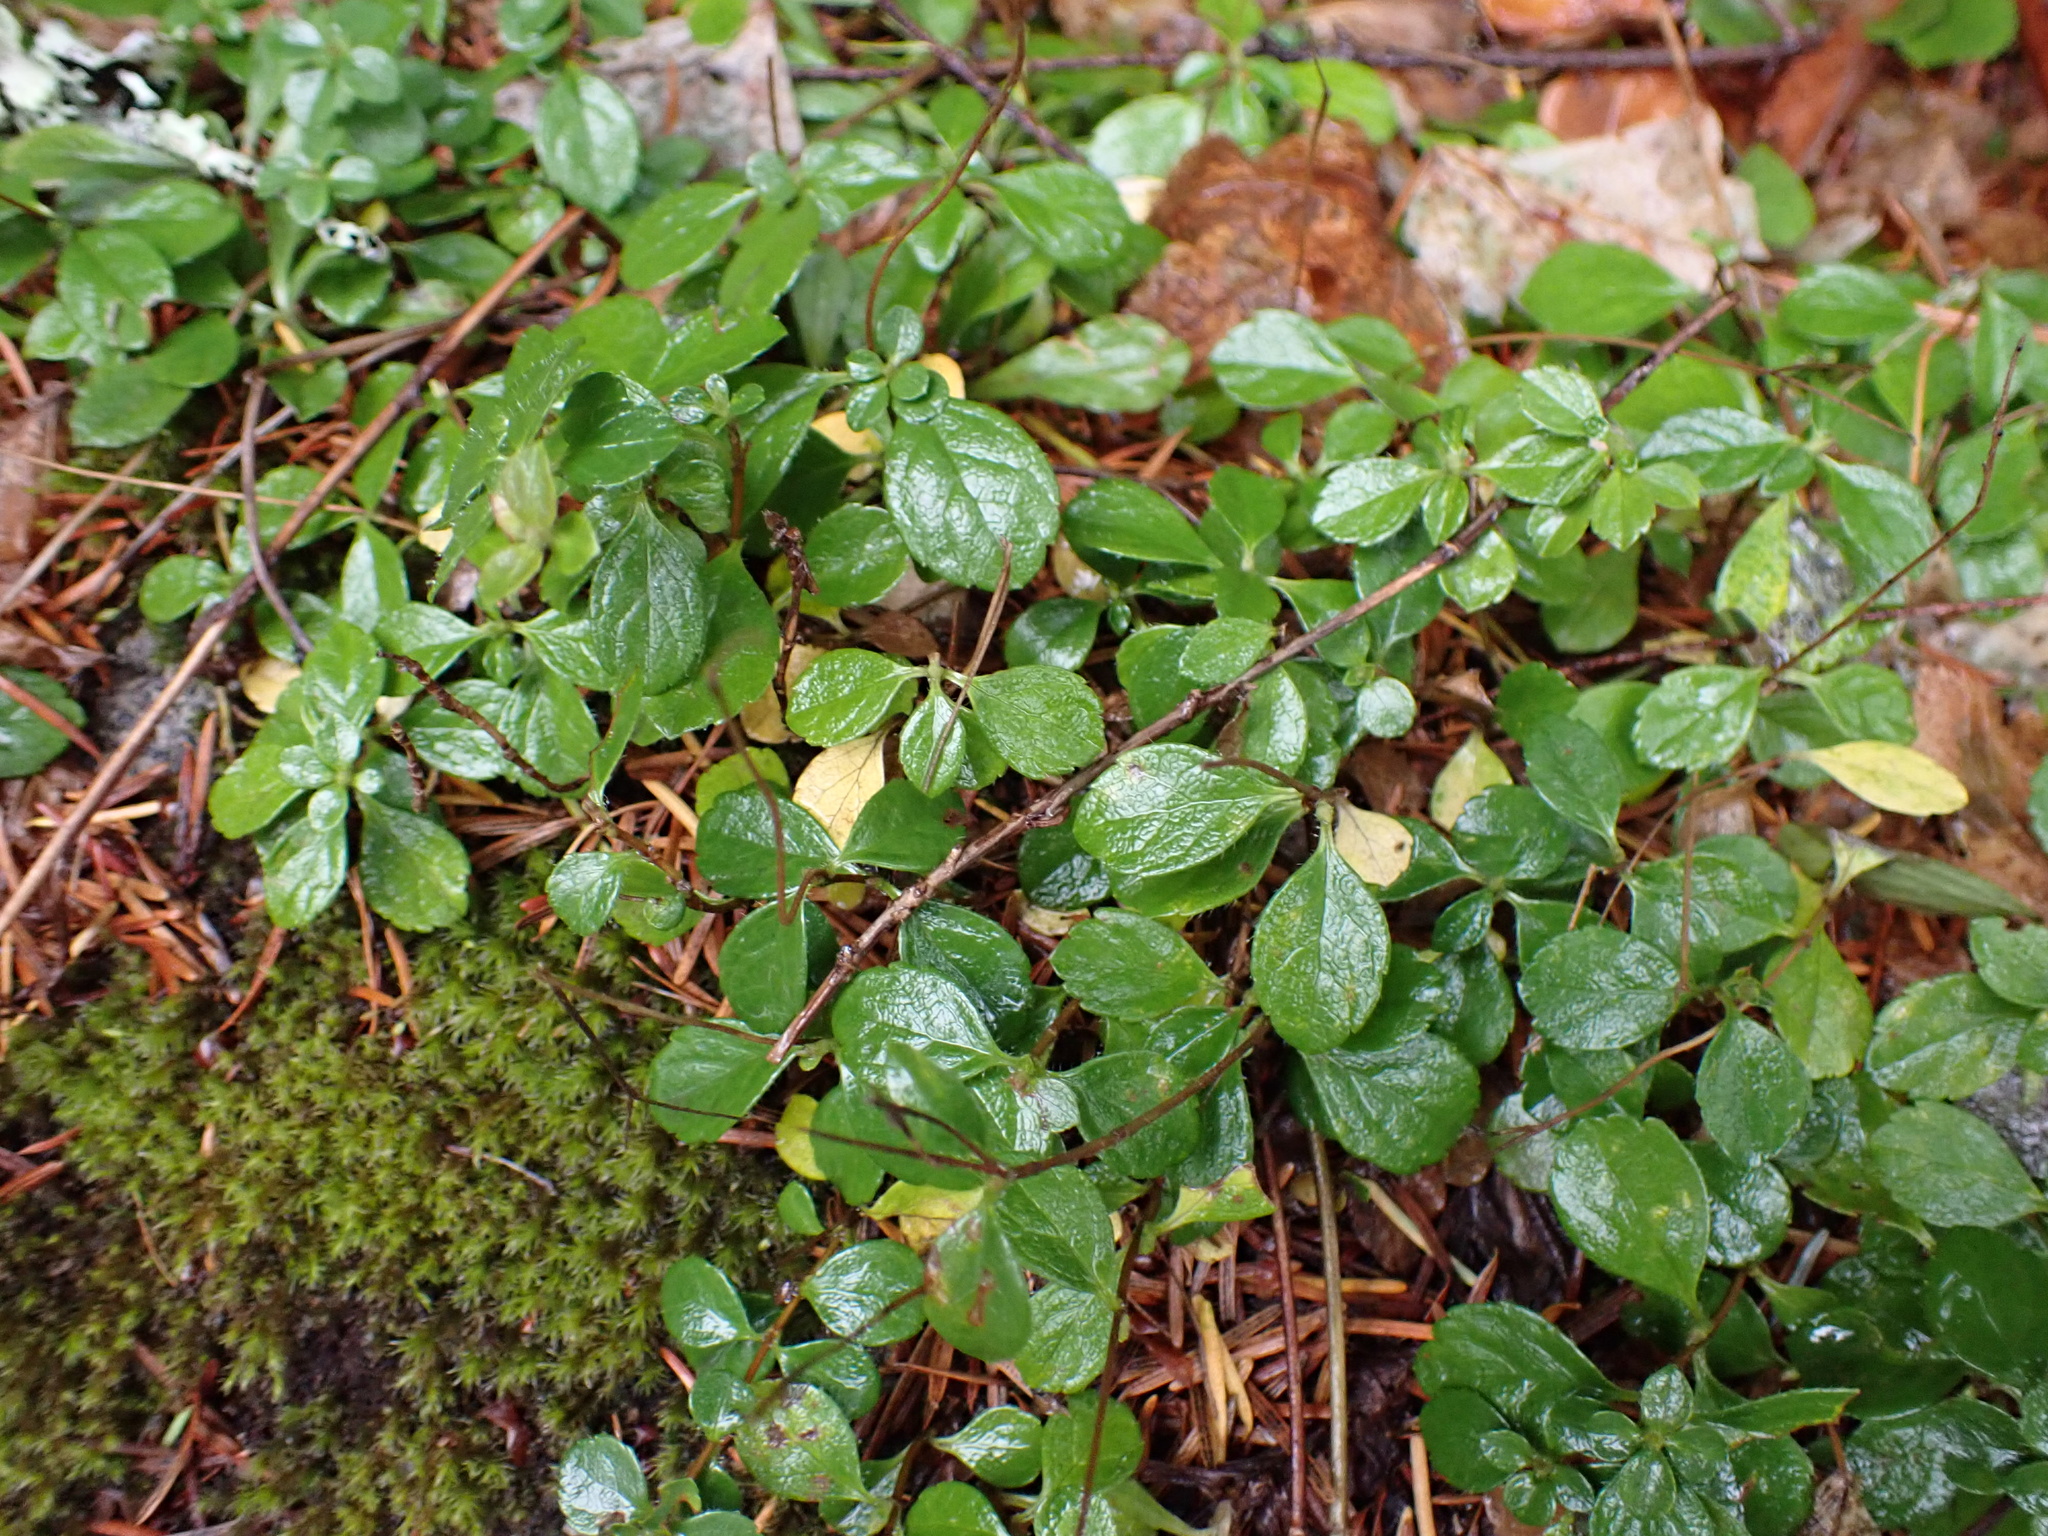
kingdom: Plantae
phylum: Tracheophyta
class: Magnoliopsida
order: Dipsacales
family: Caprifoliaceae
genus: Linnaea
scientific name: Linnaea borealis
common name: Twinflower
